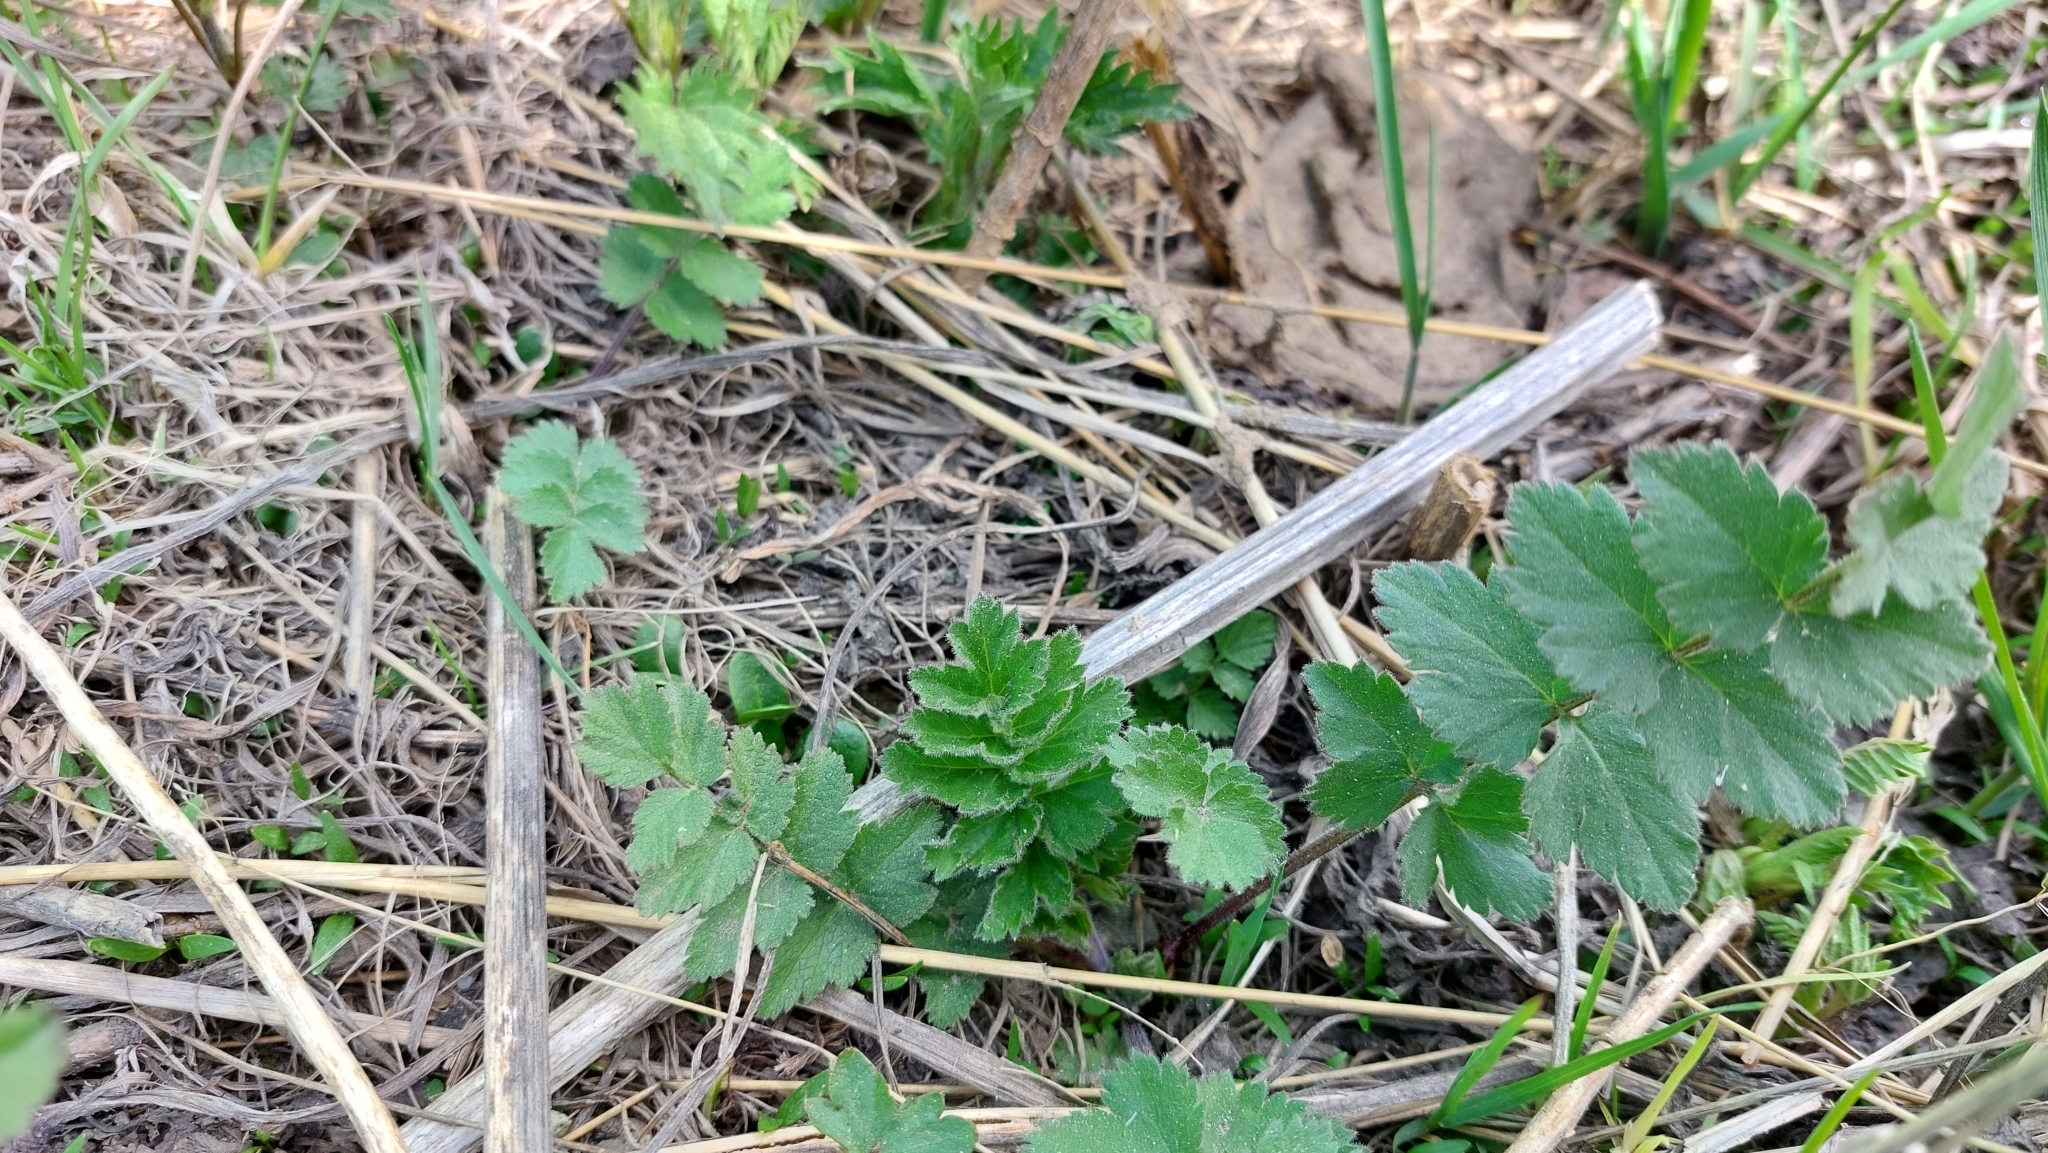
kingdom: Plantae
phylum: Tracheophyta
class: Magnoliopsida
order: Apiales
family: Apiaceae
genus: Pimpinella
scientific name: Pimpinella saxifraga
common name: Burnet-saxifrage
